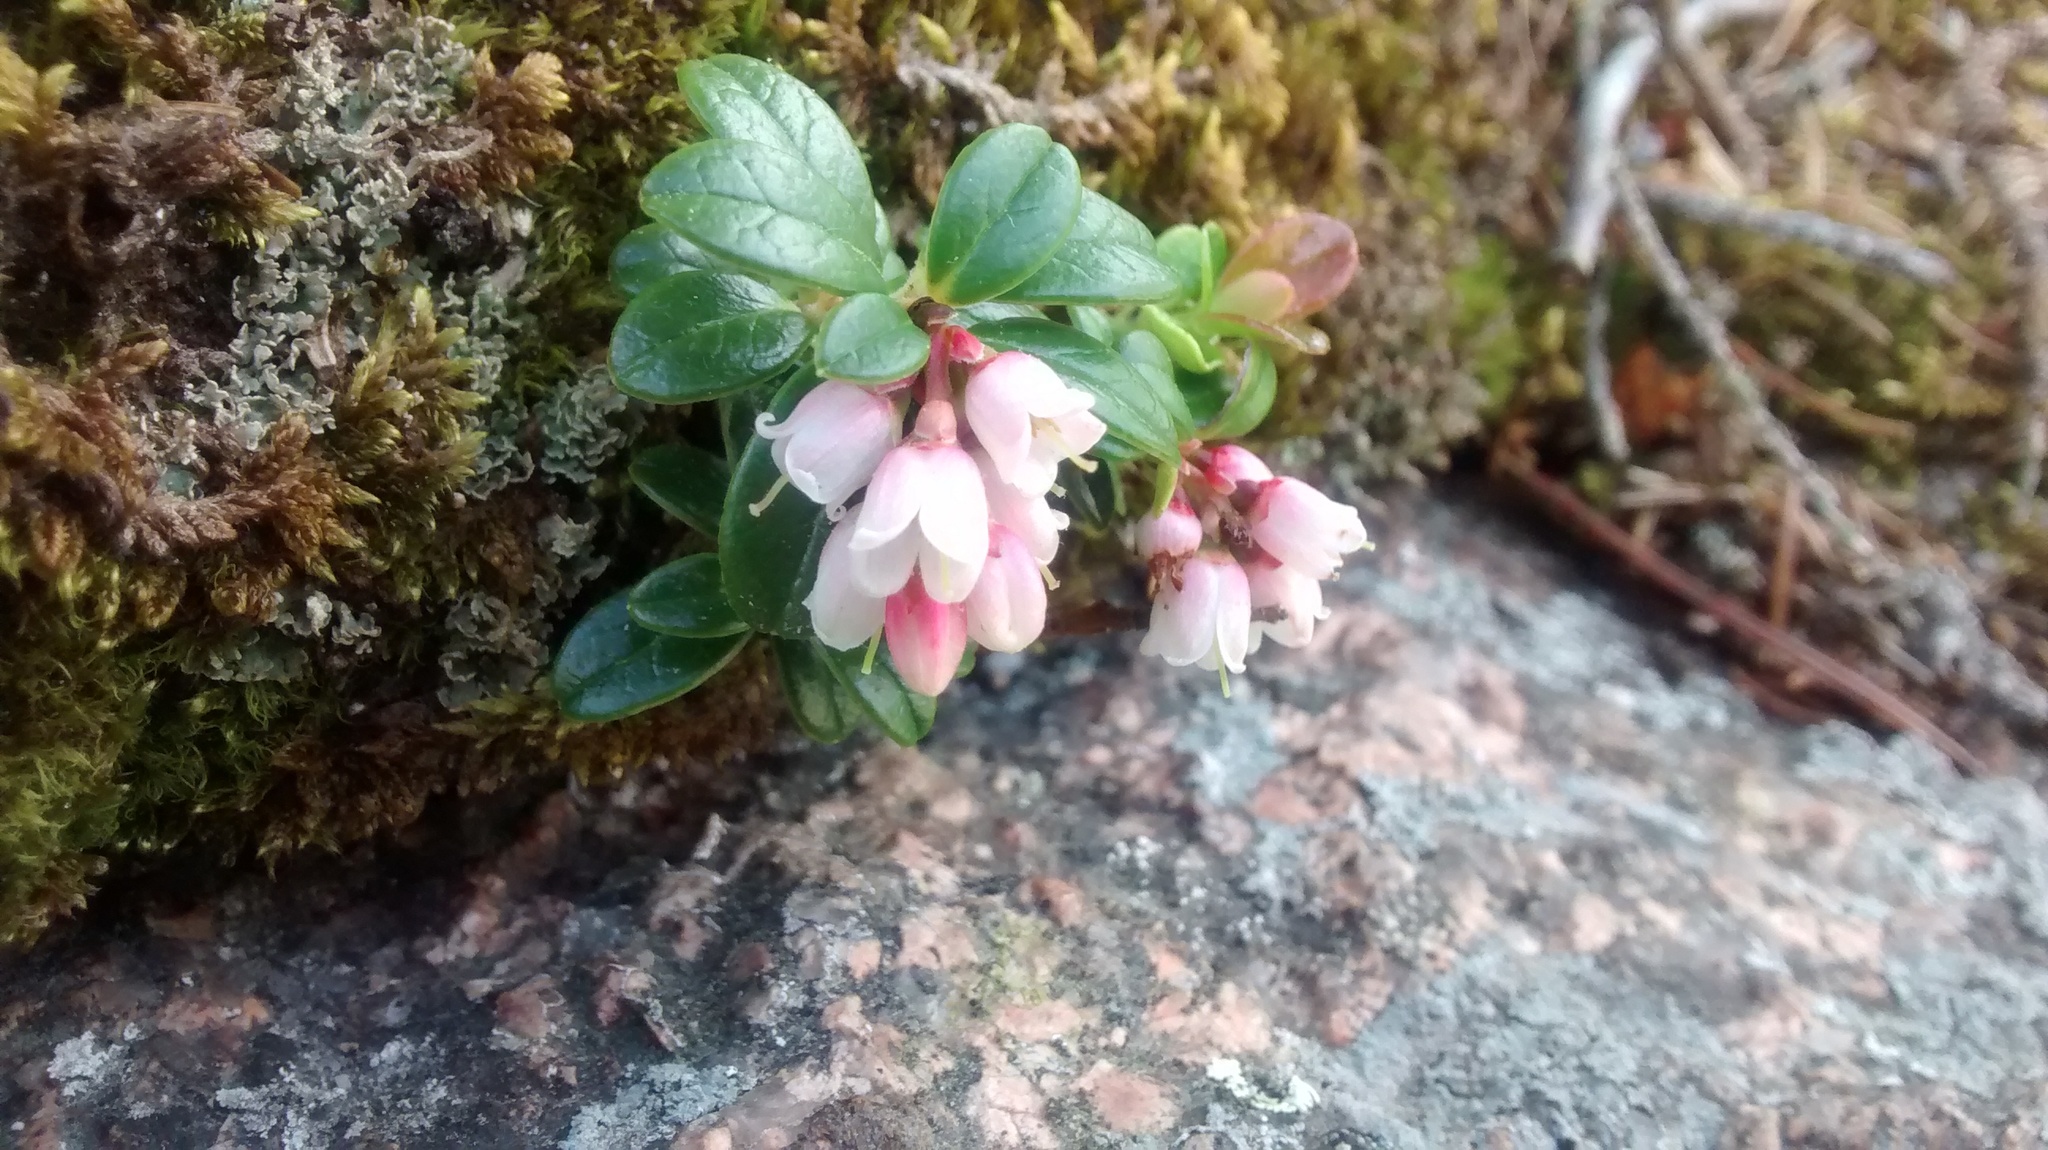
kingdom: Plantae
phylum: Tracheophyta
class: Magnoliopsida
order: Ericales
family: Ericaceae
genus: Vaccinium
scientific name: Vaccinium vitis-idaea
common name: Cowberry
